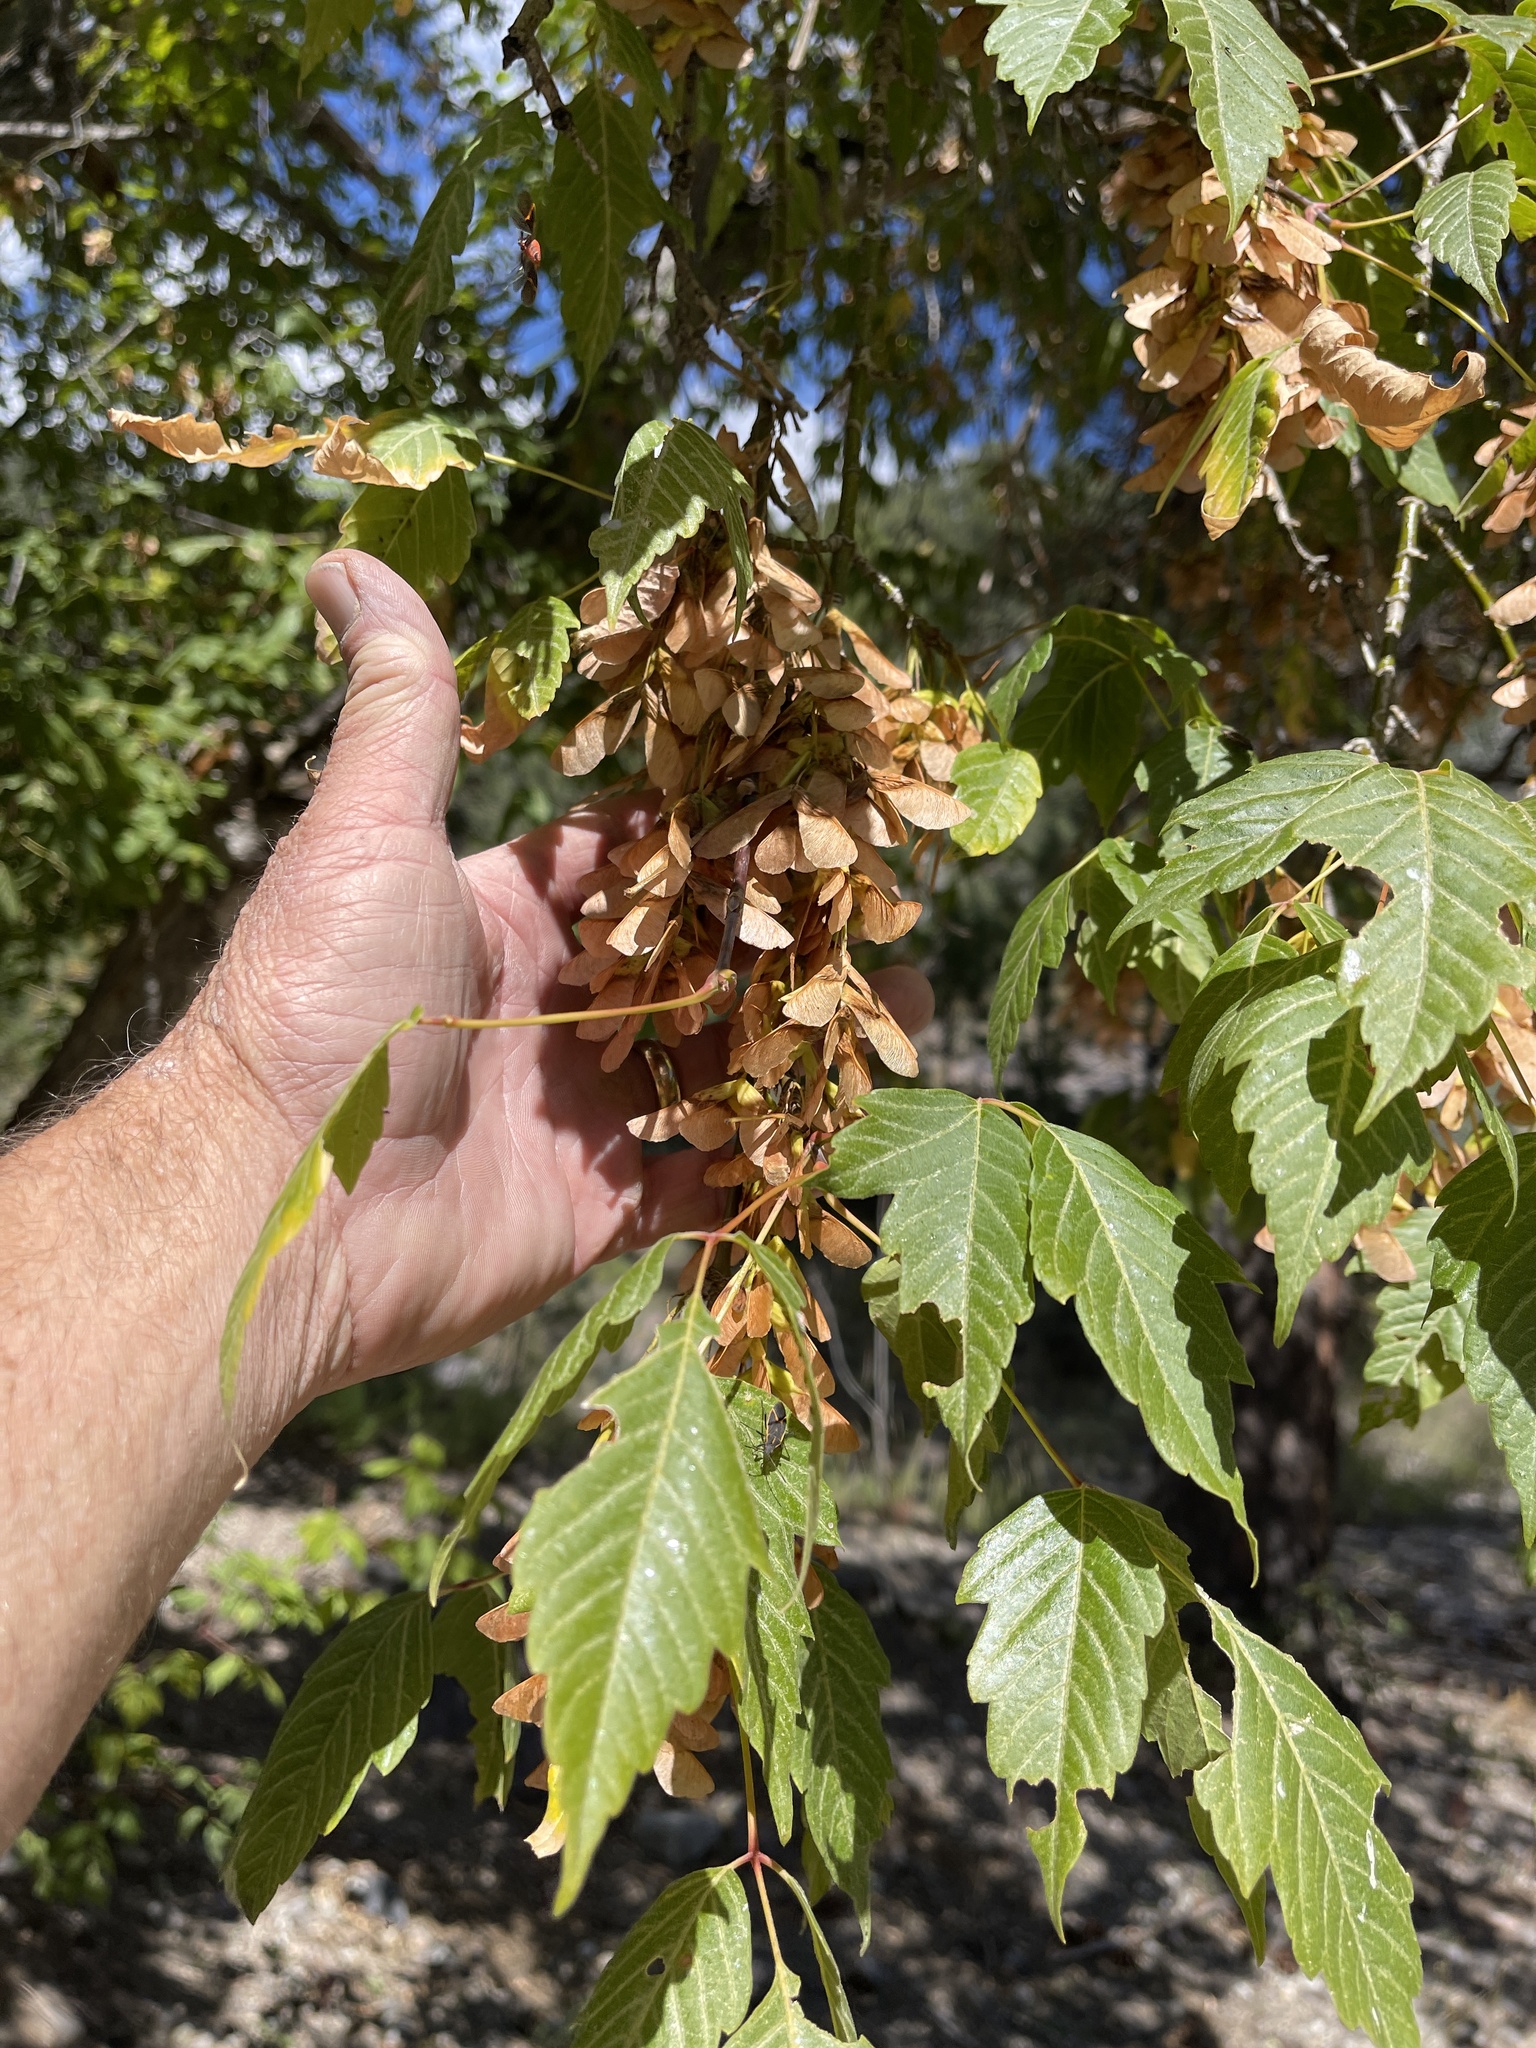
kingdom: Plantae
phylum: Tracheophyta
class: Magnoliopsida
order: Sapindales
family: Sapindaceae
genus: Acer
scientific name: Acer negundo
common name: Ashleaf maple
